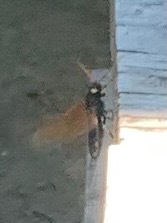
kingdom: Animalia
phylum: Arthropoda
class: Insecta
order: Hymenoptera
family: Siricidae
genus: Urocerus
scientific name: Urocerus californicus
